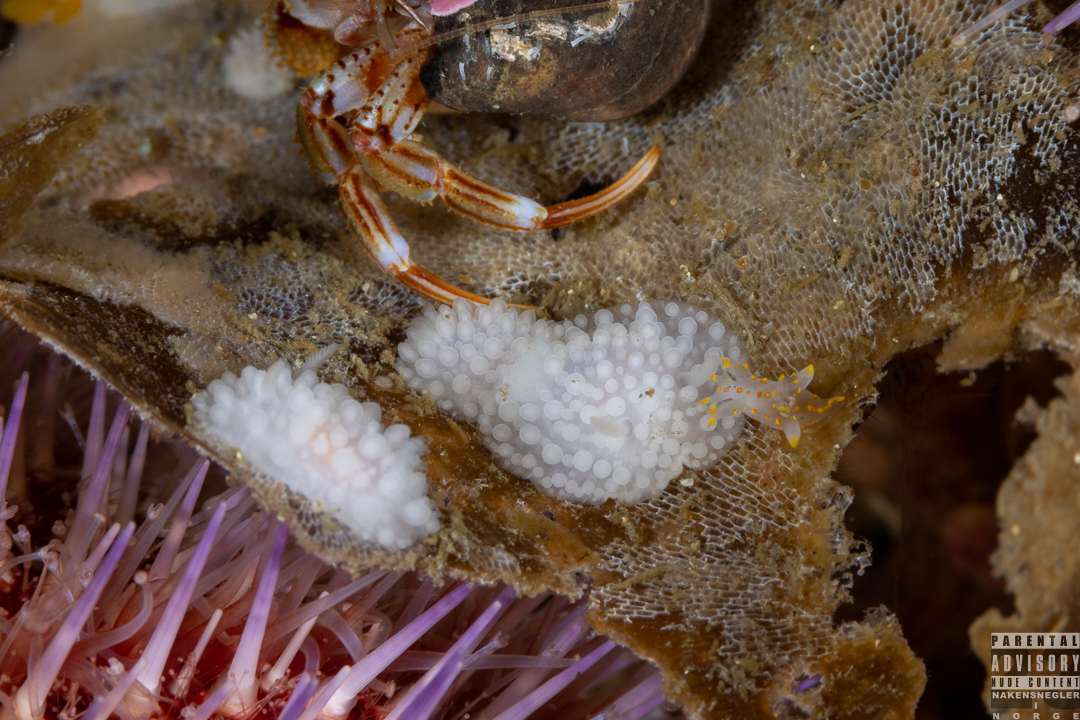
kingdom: Animalia
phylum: Mollusca
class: Gastropoda
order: Nudibranchia
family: Onchidorididae
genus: Adalaria
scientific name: Adalaria loveni
